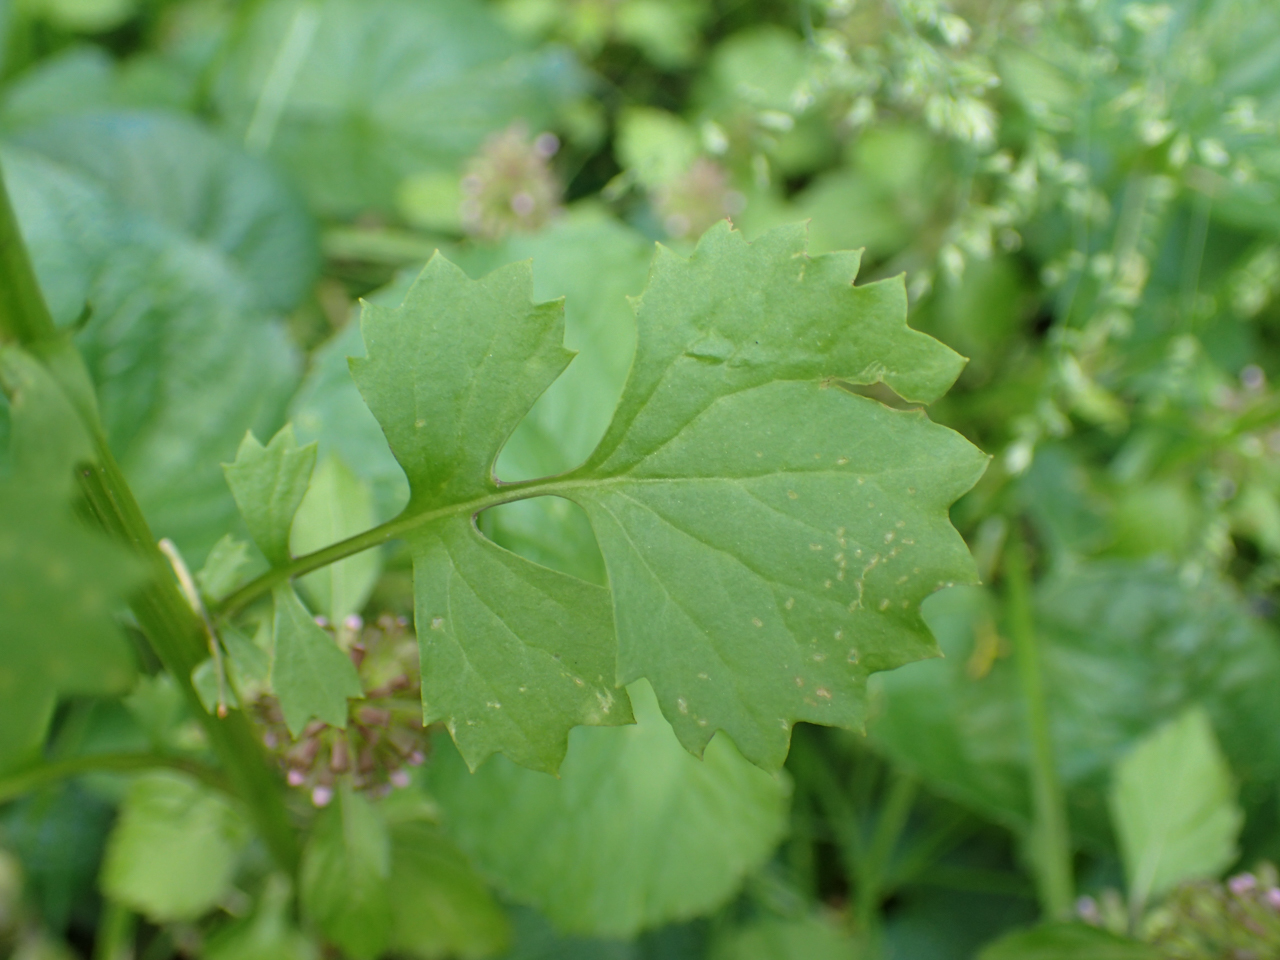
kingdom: Plantae
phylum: Tracheophyta
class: Magnoliopsida
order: Asterales
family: Asteraceae
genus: Packera
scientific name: Packera glabella
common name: Butterweed
